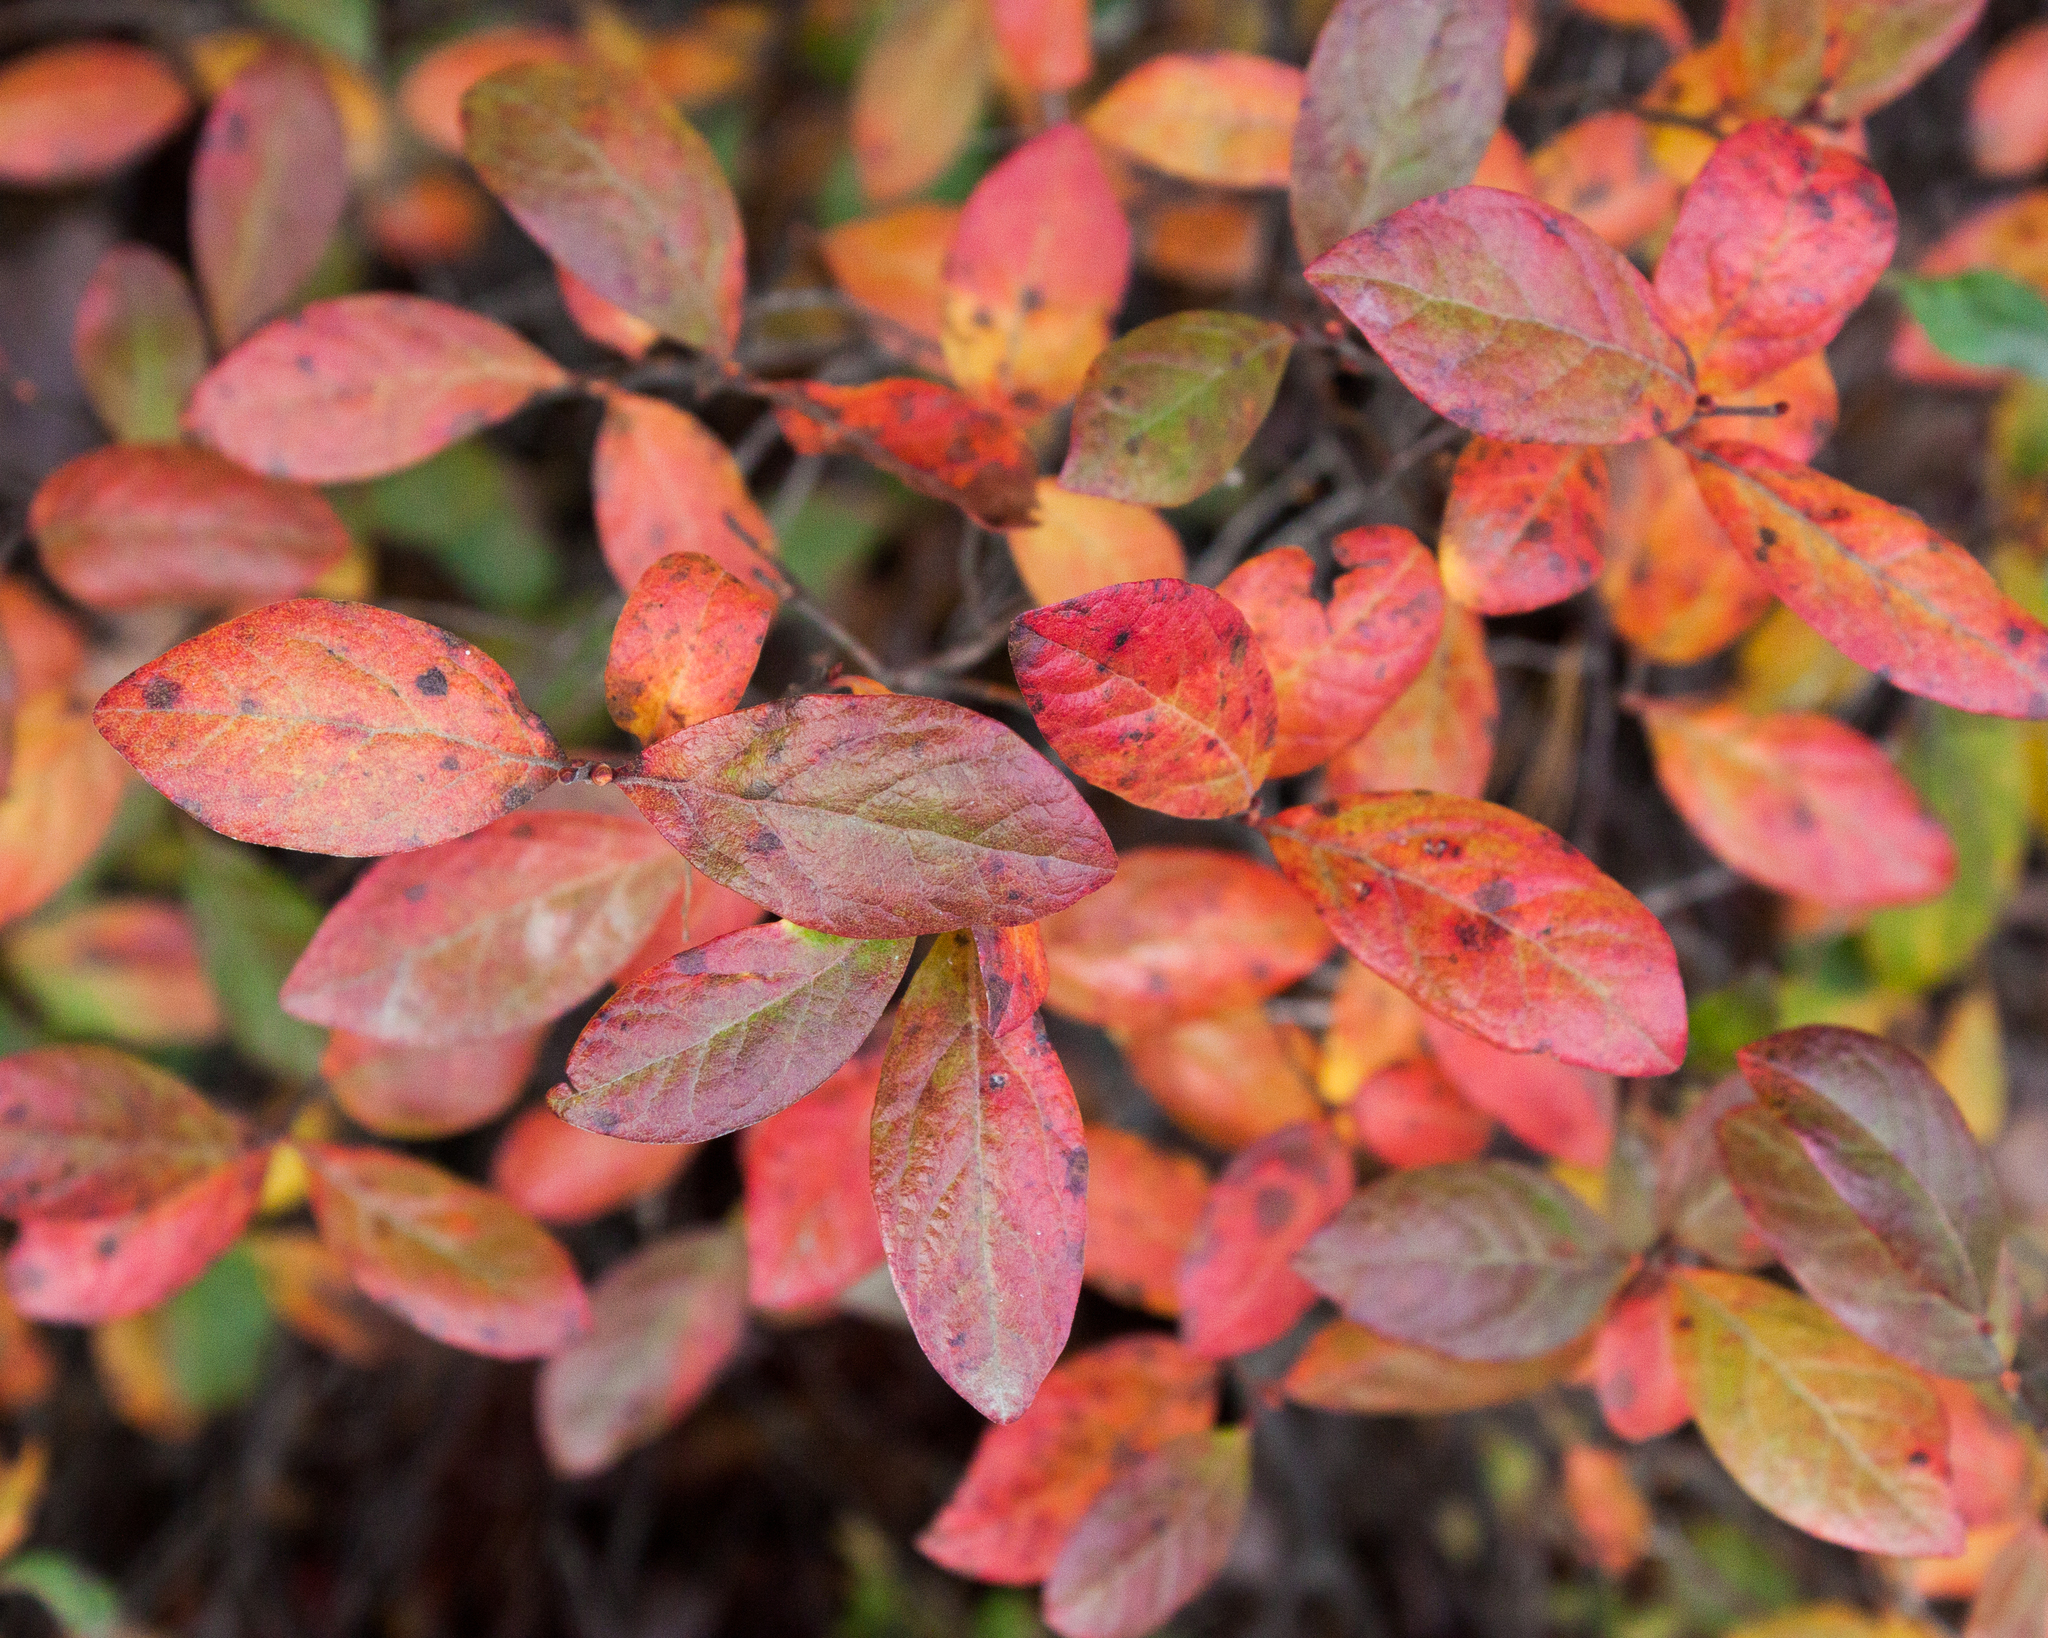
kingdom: Plantae
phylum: Tracheophyta
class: Magnoliopsida
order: Ericales
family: Ericaceae
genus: Gaylussacia
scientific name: Gaylussacia baccata
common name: Black huckleberry
